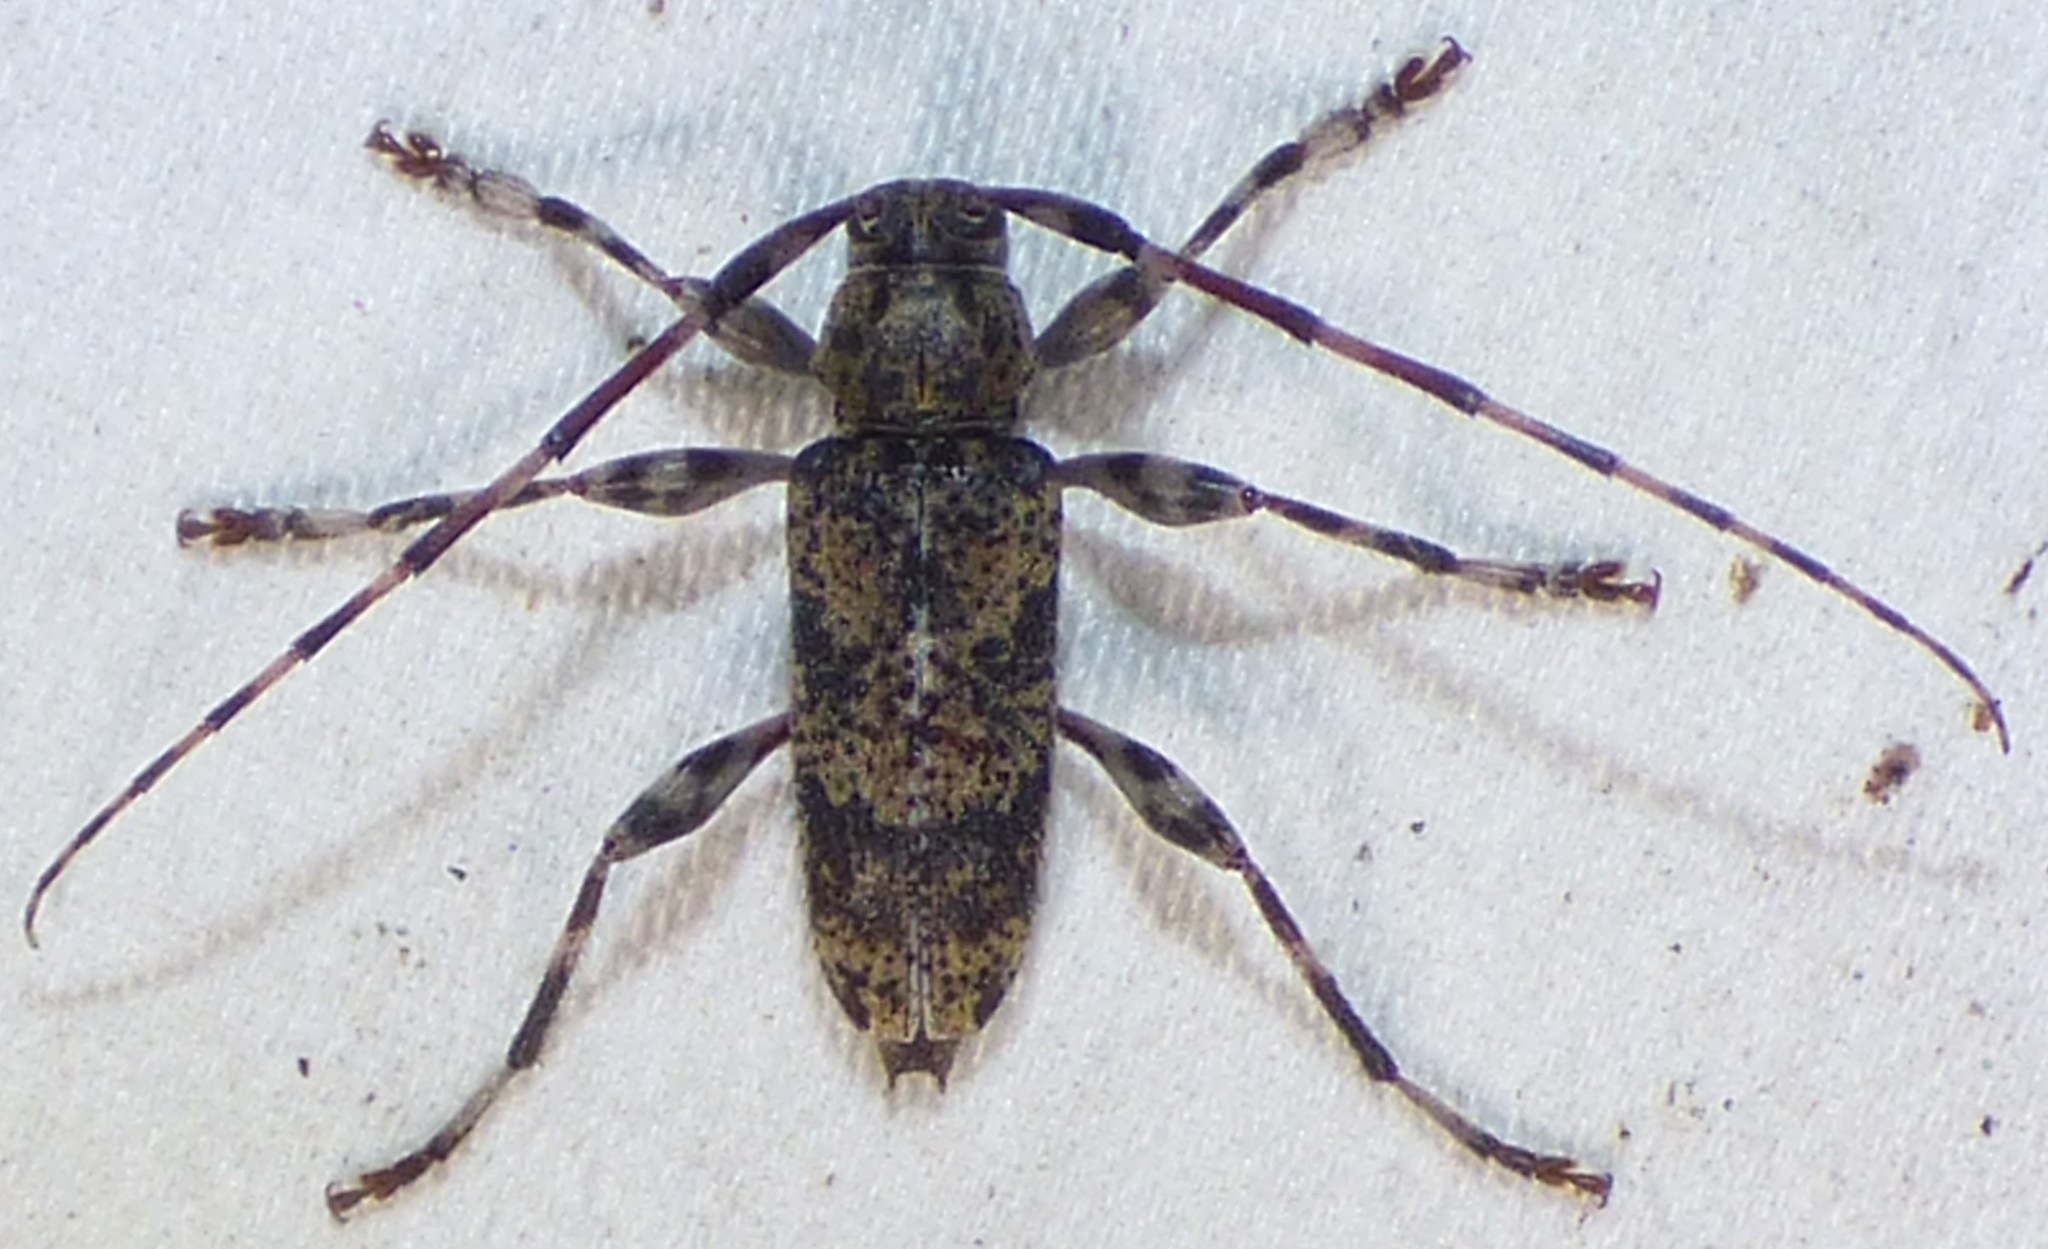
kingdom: Animalia
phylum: Arthropoda
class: Insecta
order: Coleoptera
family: Cerambycidae
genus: Graphisurus
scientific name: Graphisurus fasciatus
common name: Banded graphisurus
